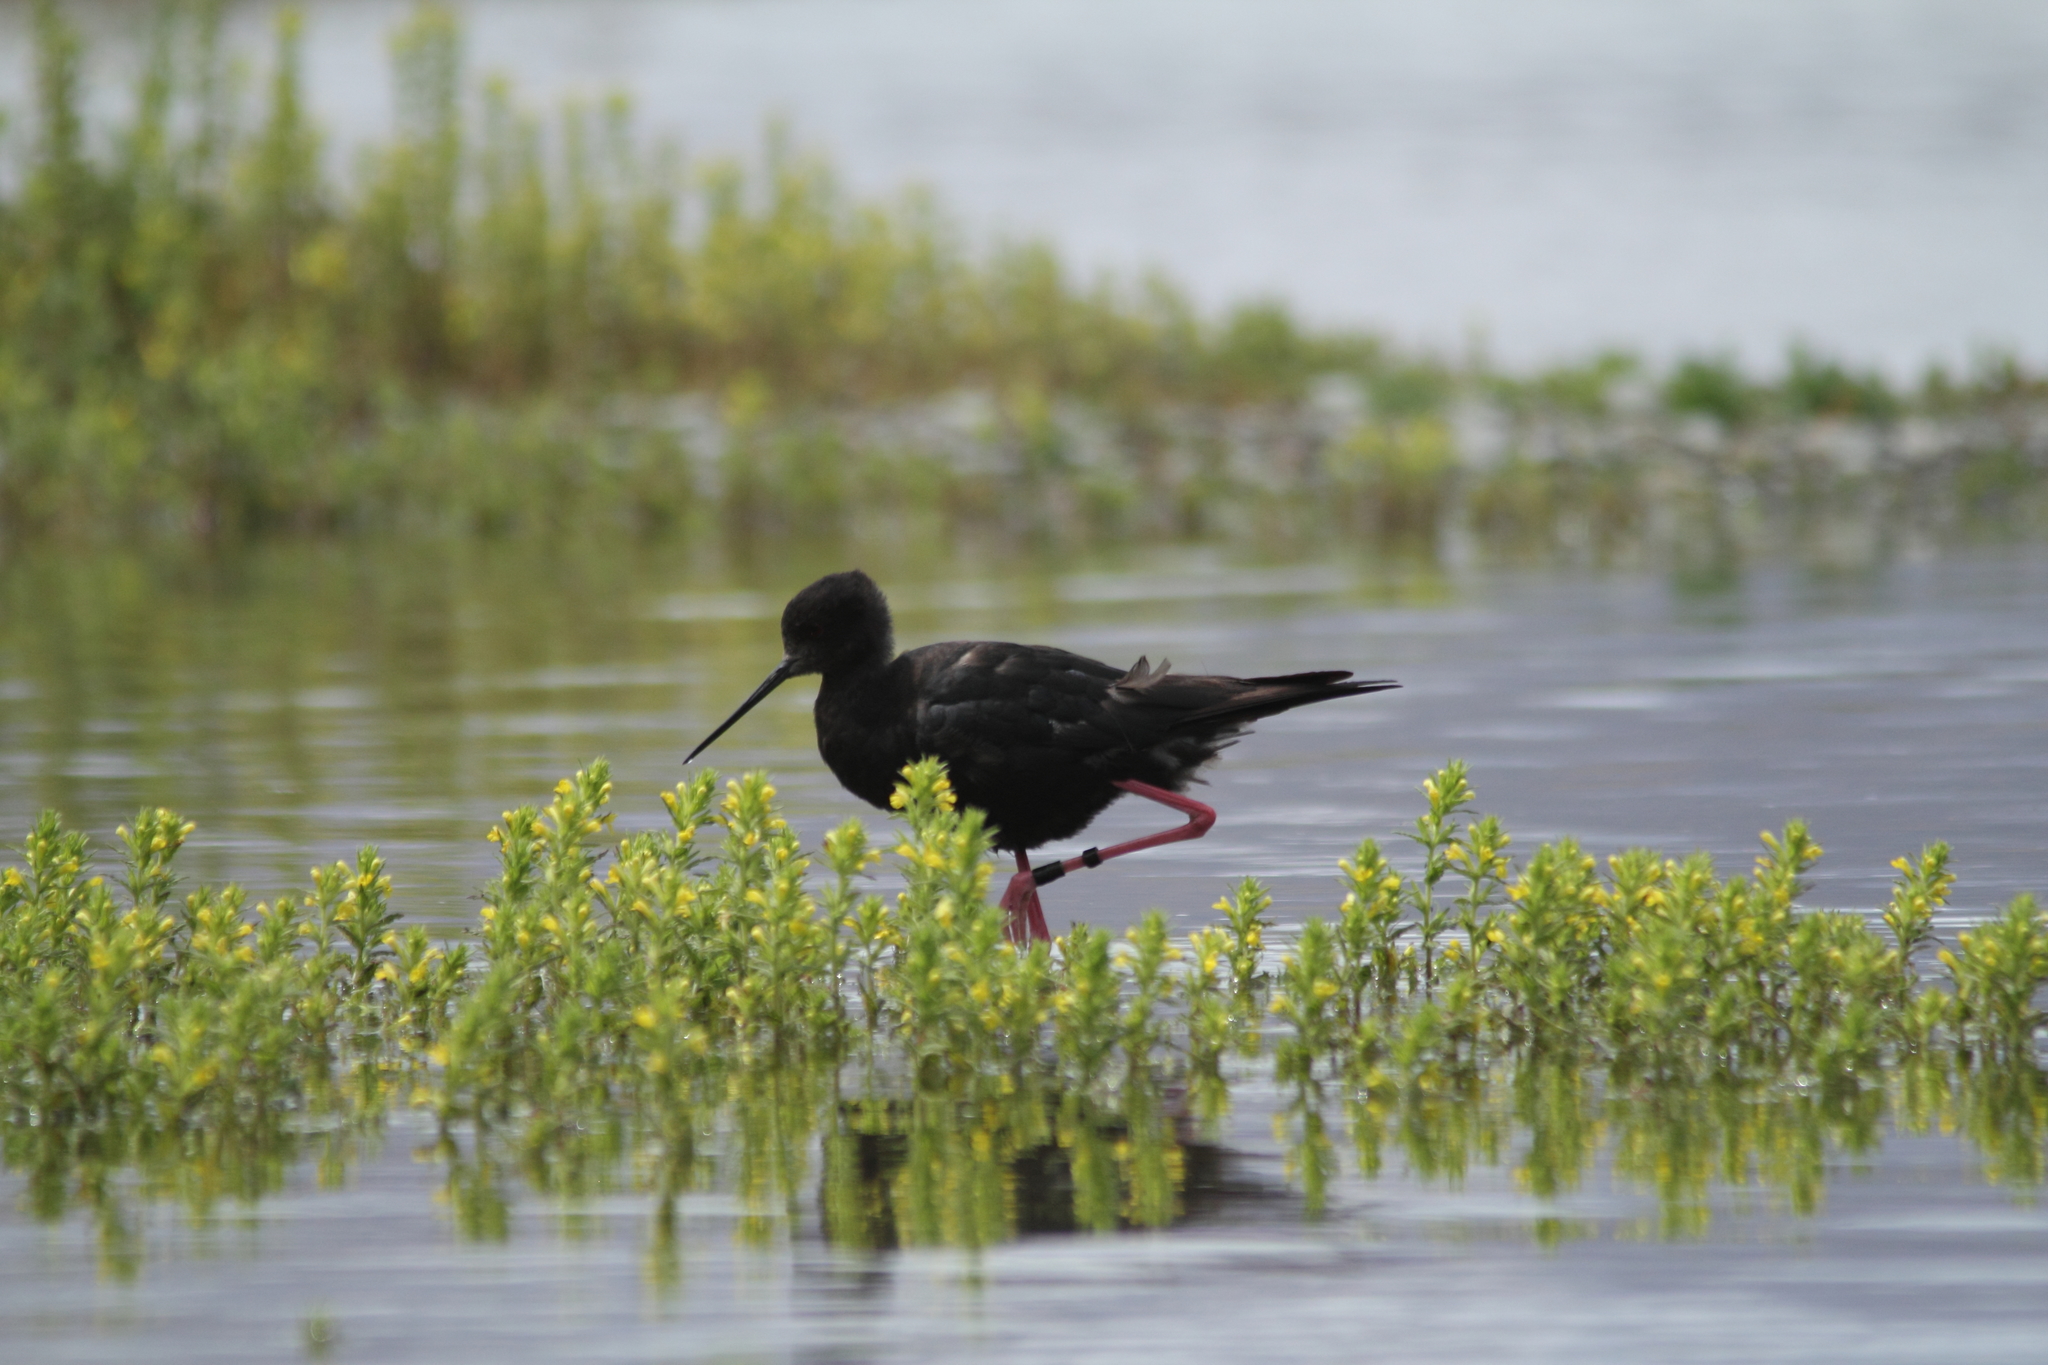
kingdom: Animalia
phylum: Chordata
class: Aves
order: Charadriiformes
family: Recurvirostridae
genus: Himantopus
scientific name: Himantopus novaezelandiae
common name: Black stilt
